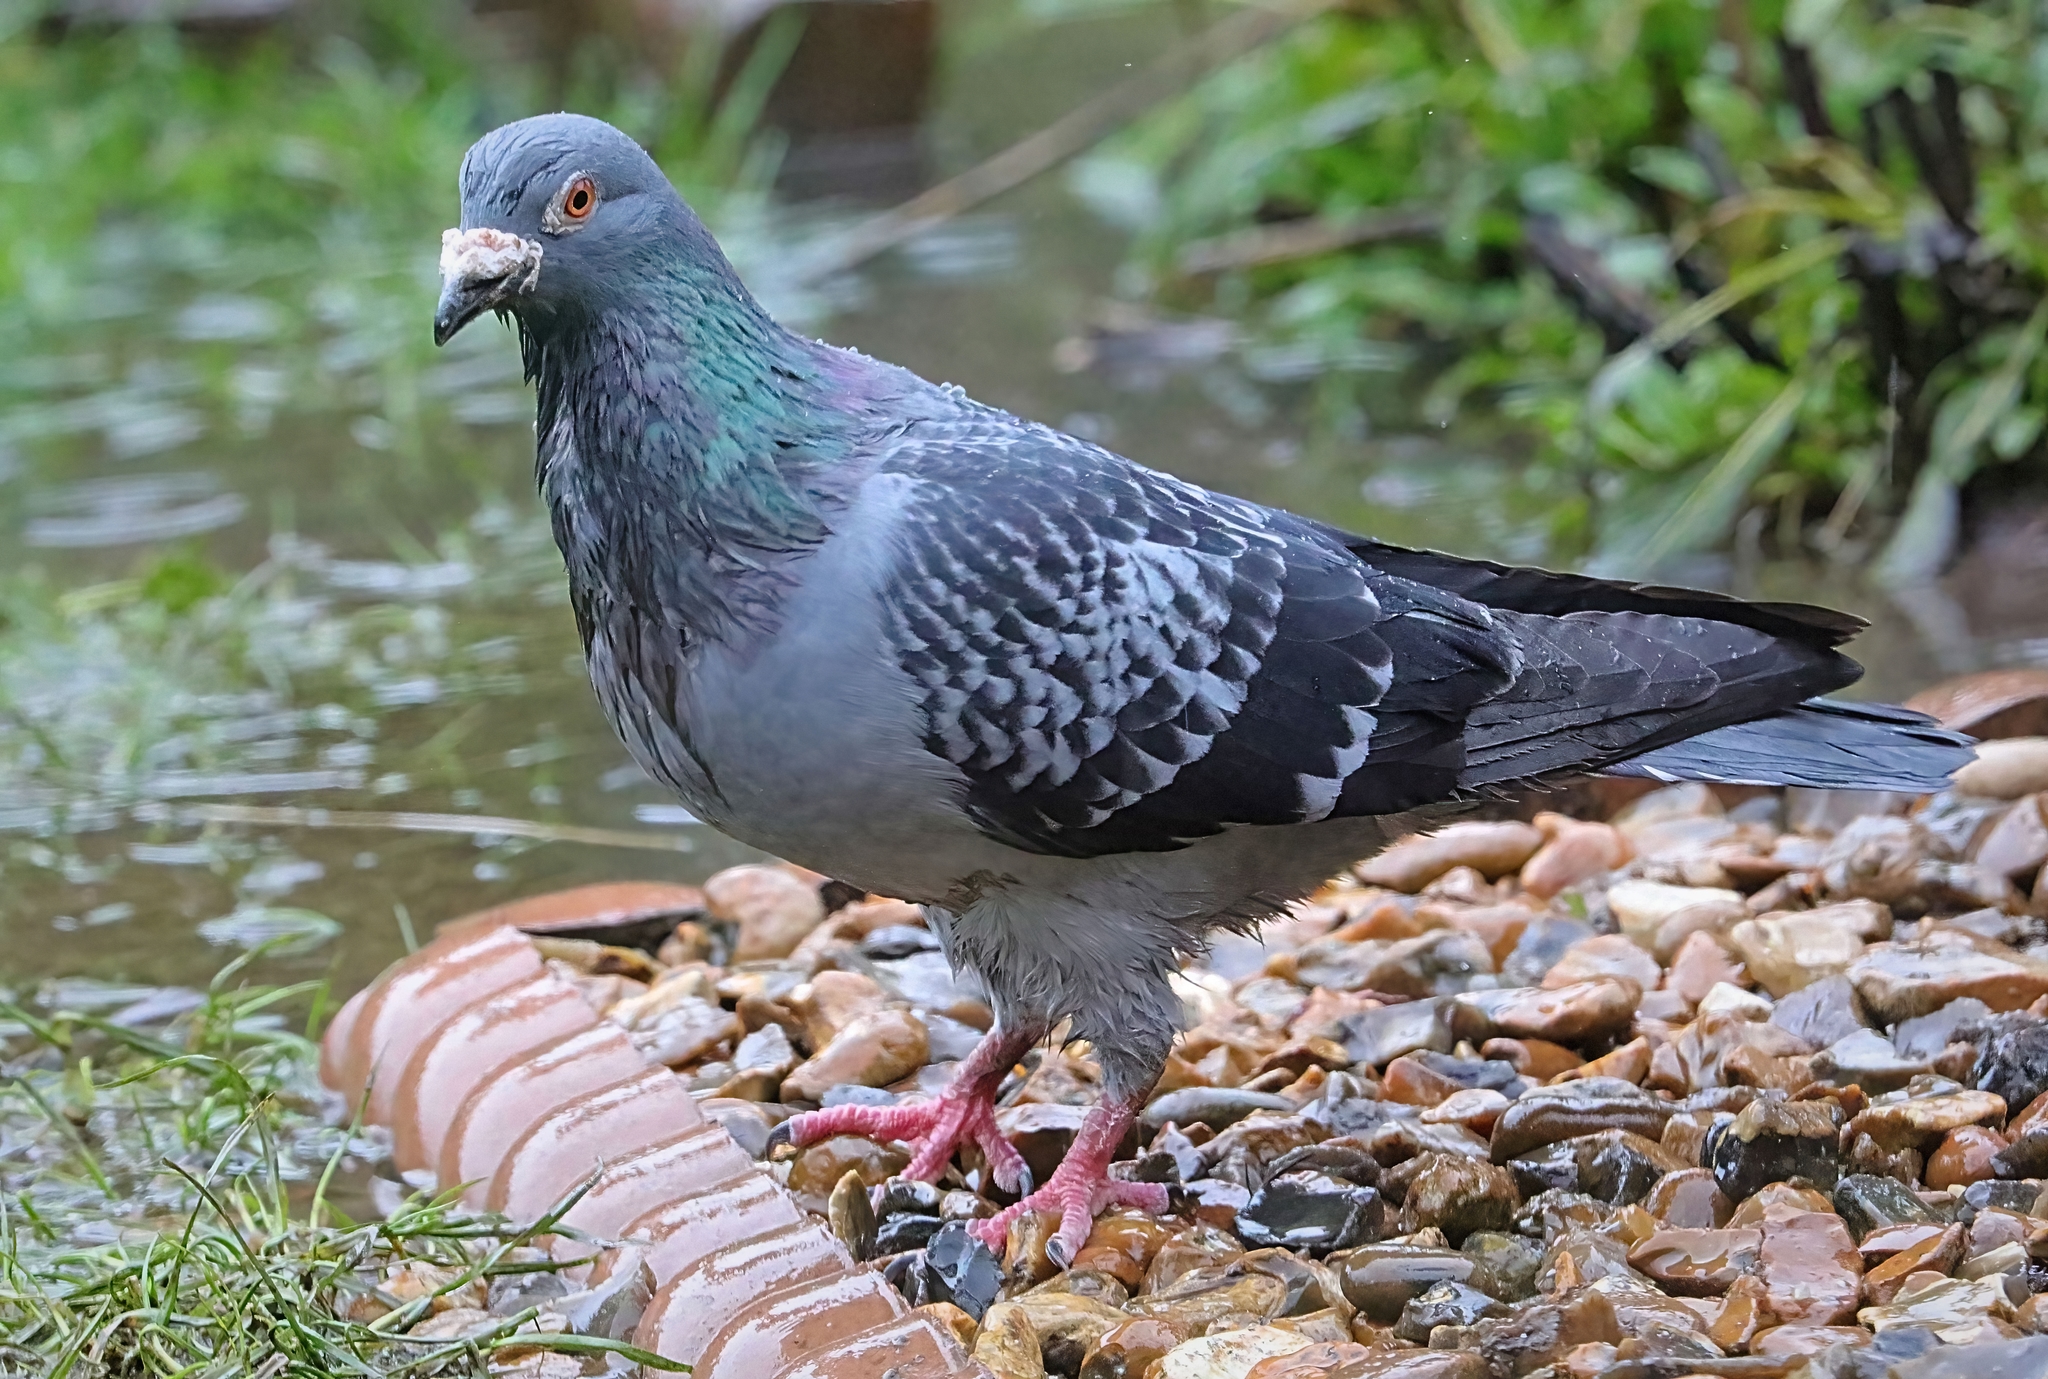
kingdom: Animalia
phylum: Chordata
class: Aves
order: Columbiformes
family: Columbidae
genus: Columba
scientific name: Columba livia
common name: Rock pigeon
